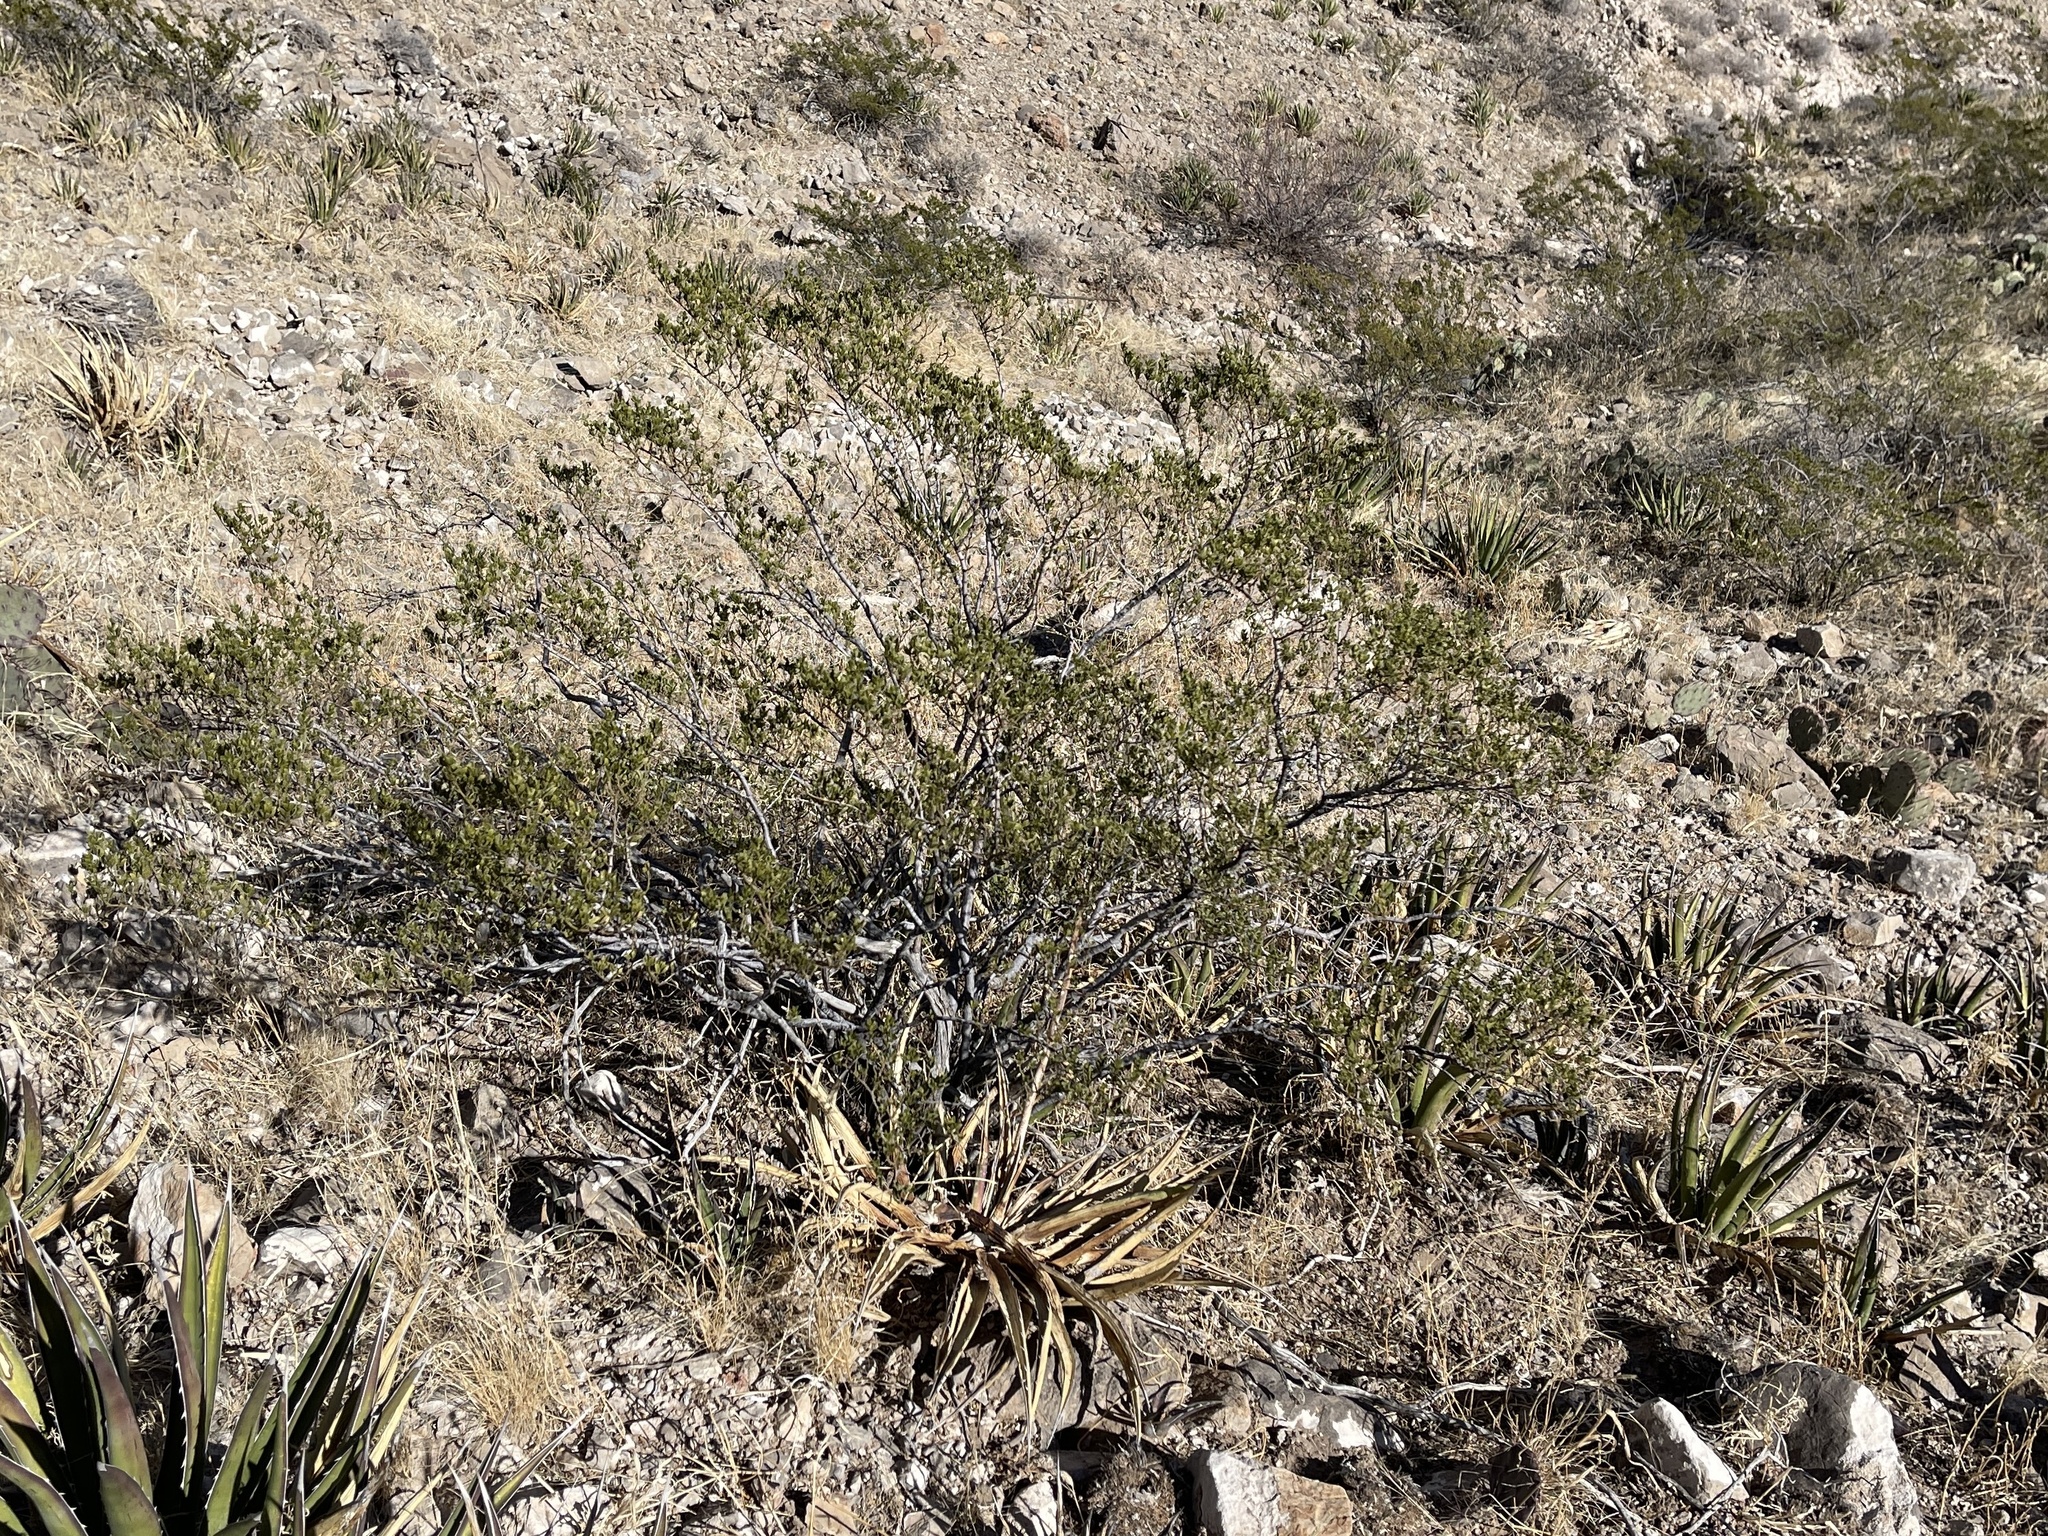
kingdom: Plantae
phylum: Tracheophyta
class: Magnoliopsida
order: Zygophyllales
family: Zygophyllaceae
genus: Larrea
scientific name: Larrea tridentata
